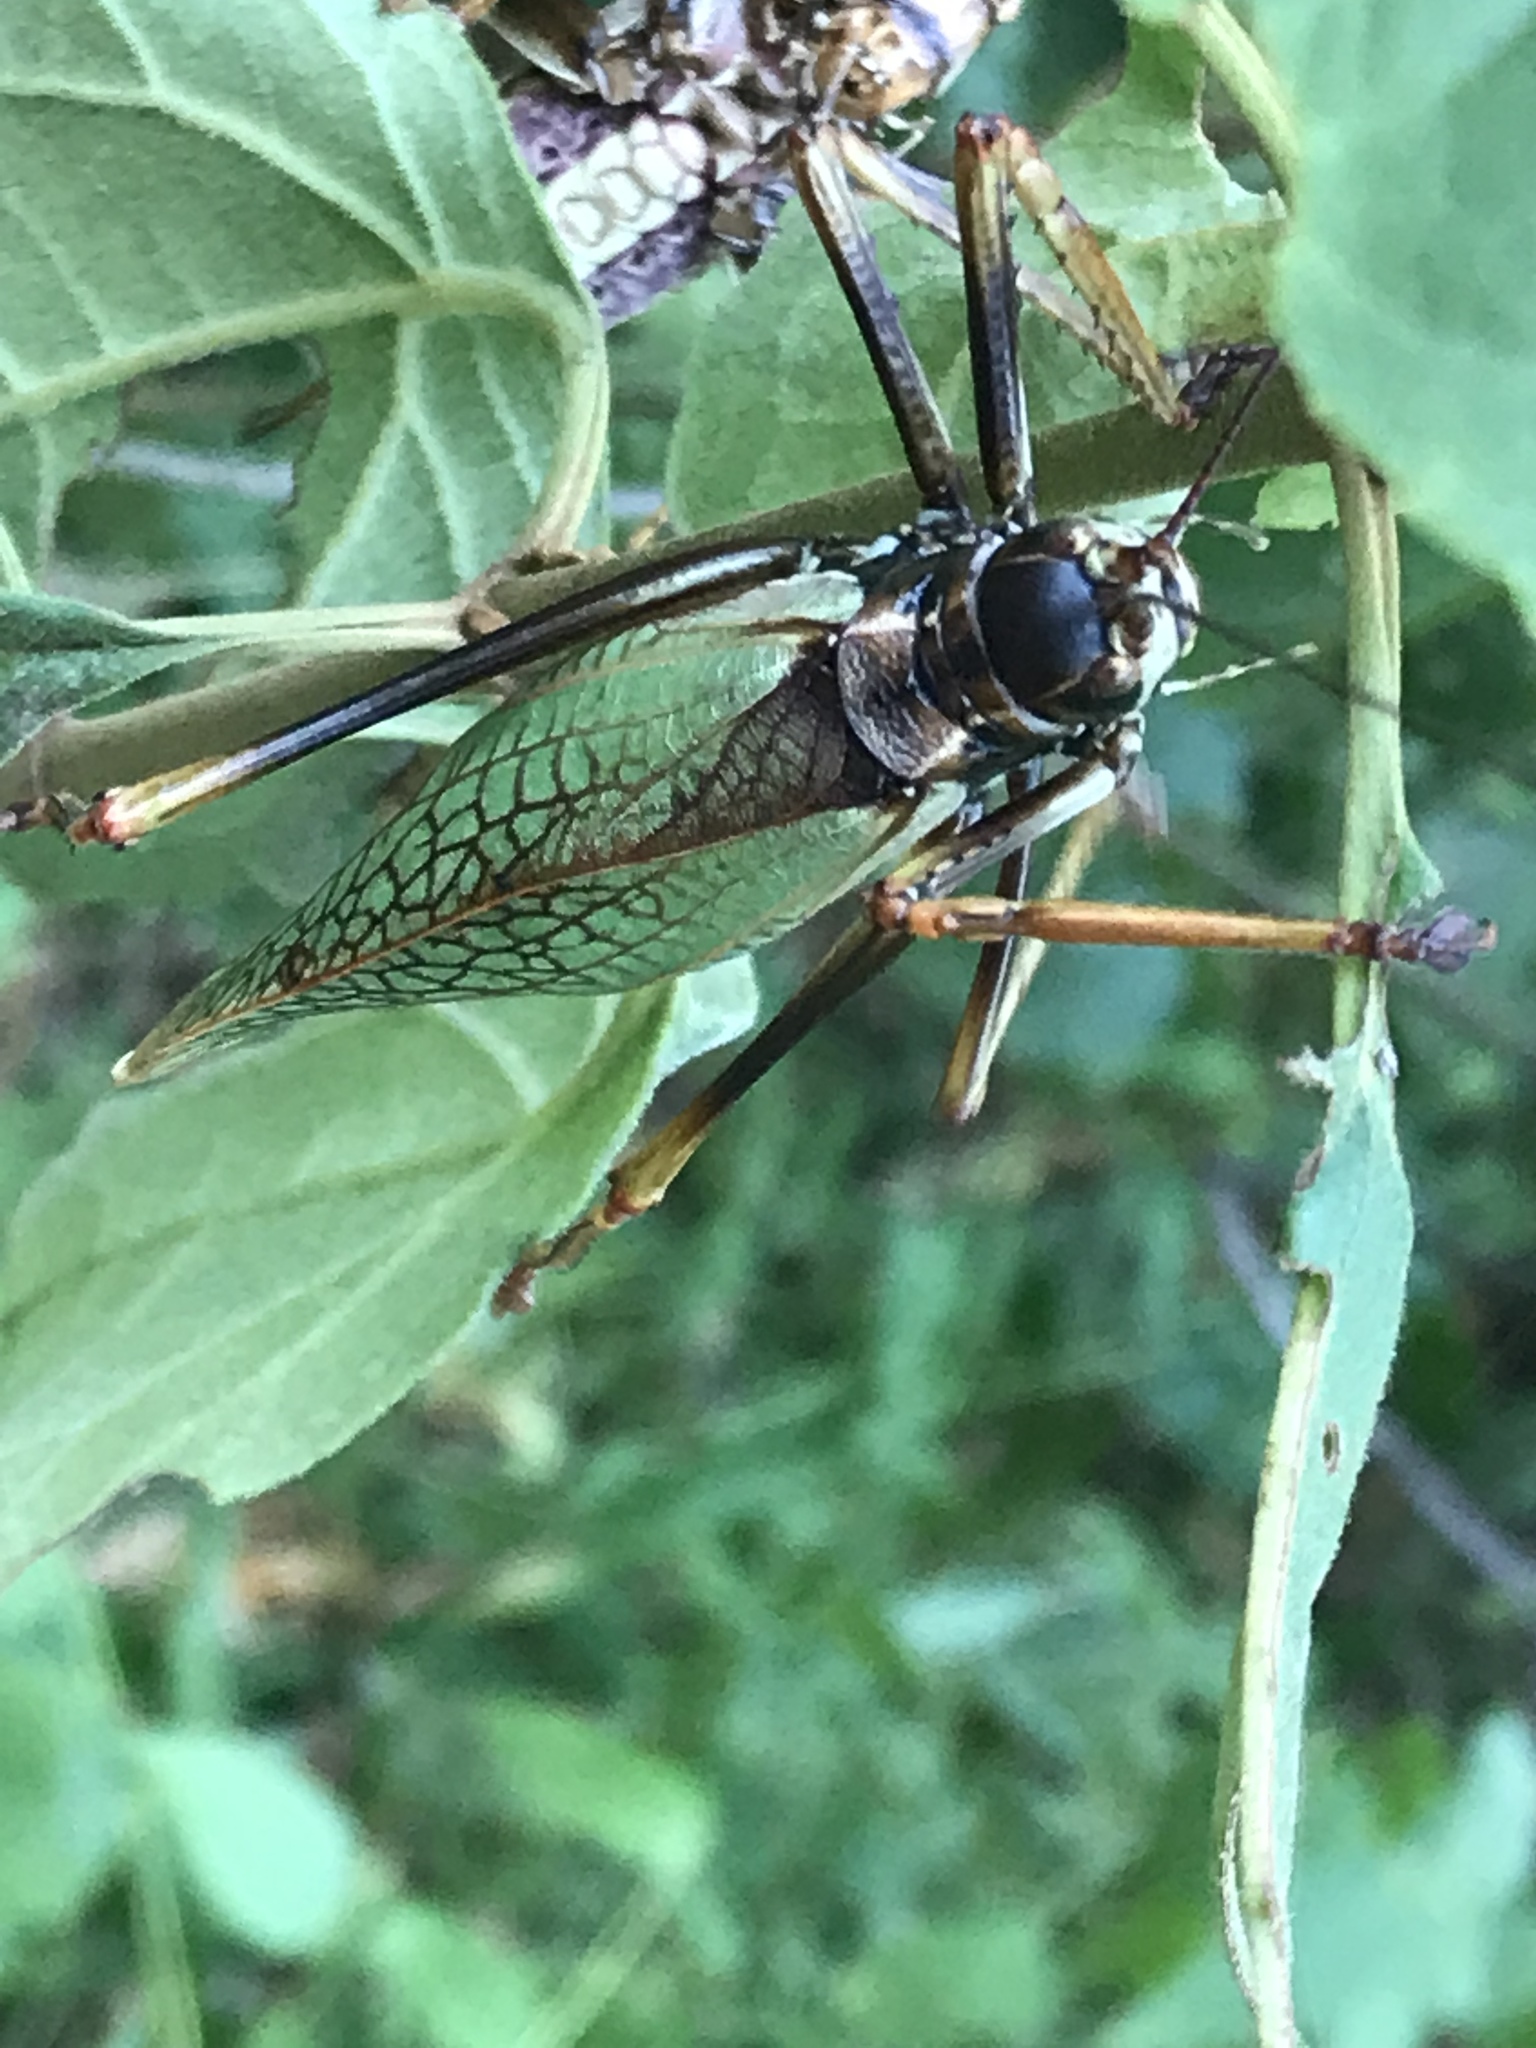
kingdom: Animalia
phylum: Arthropoda
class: Insecta
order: Orthoptera
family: Tettigoniidae
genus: Pterophylla
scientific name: Pterophylla beltrani
